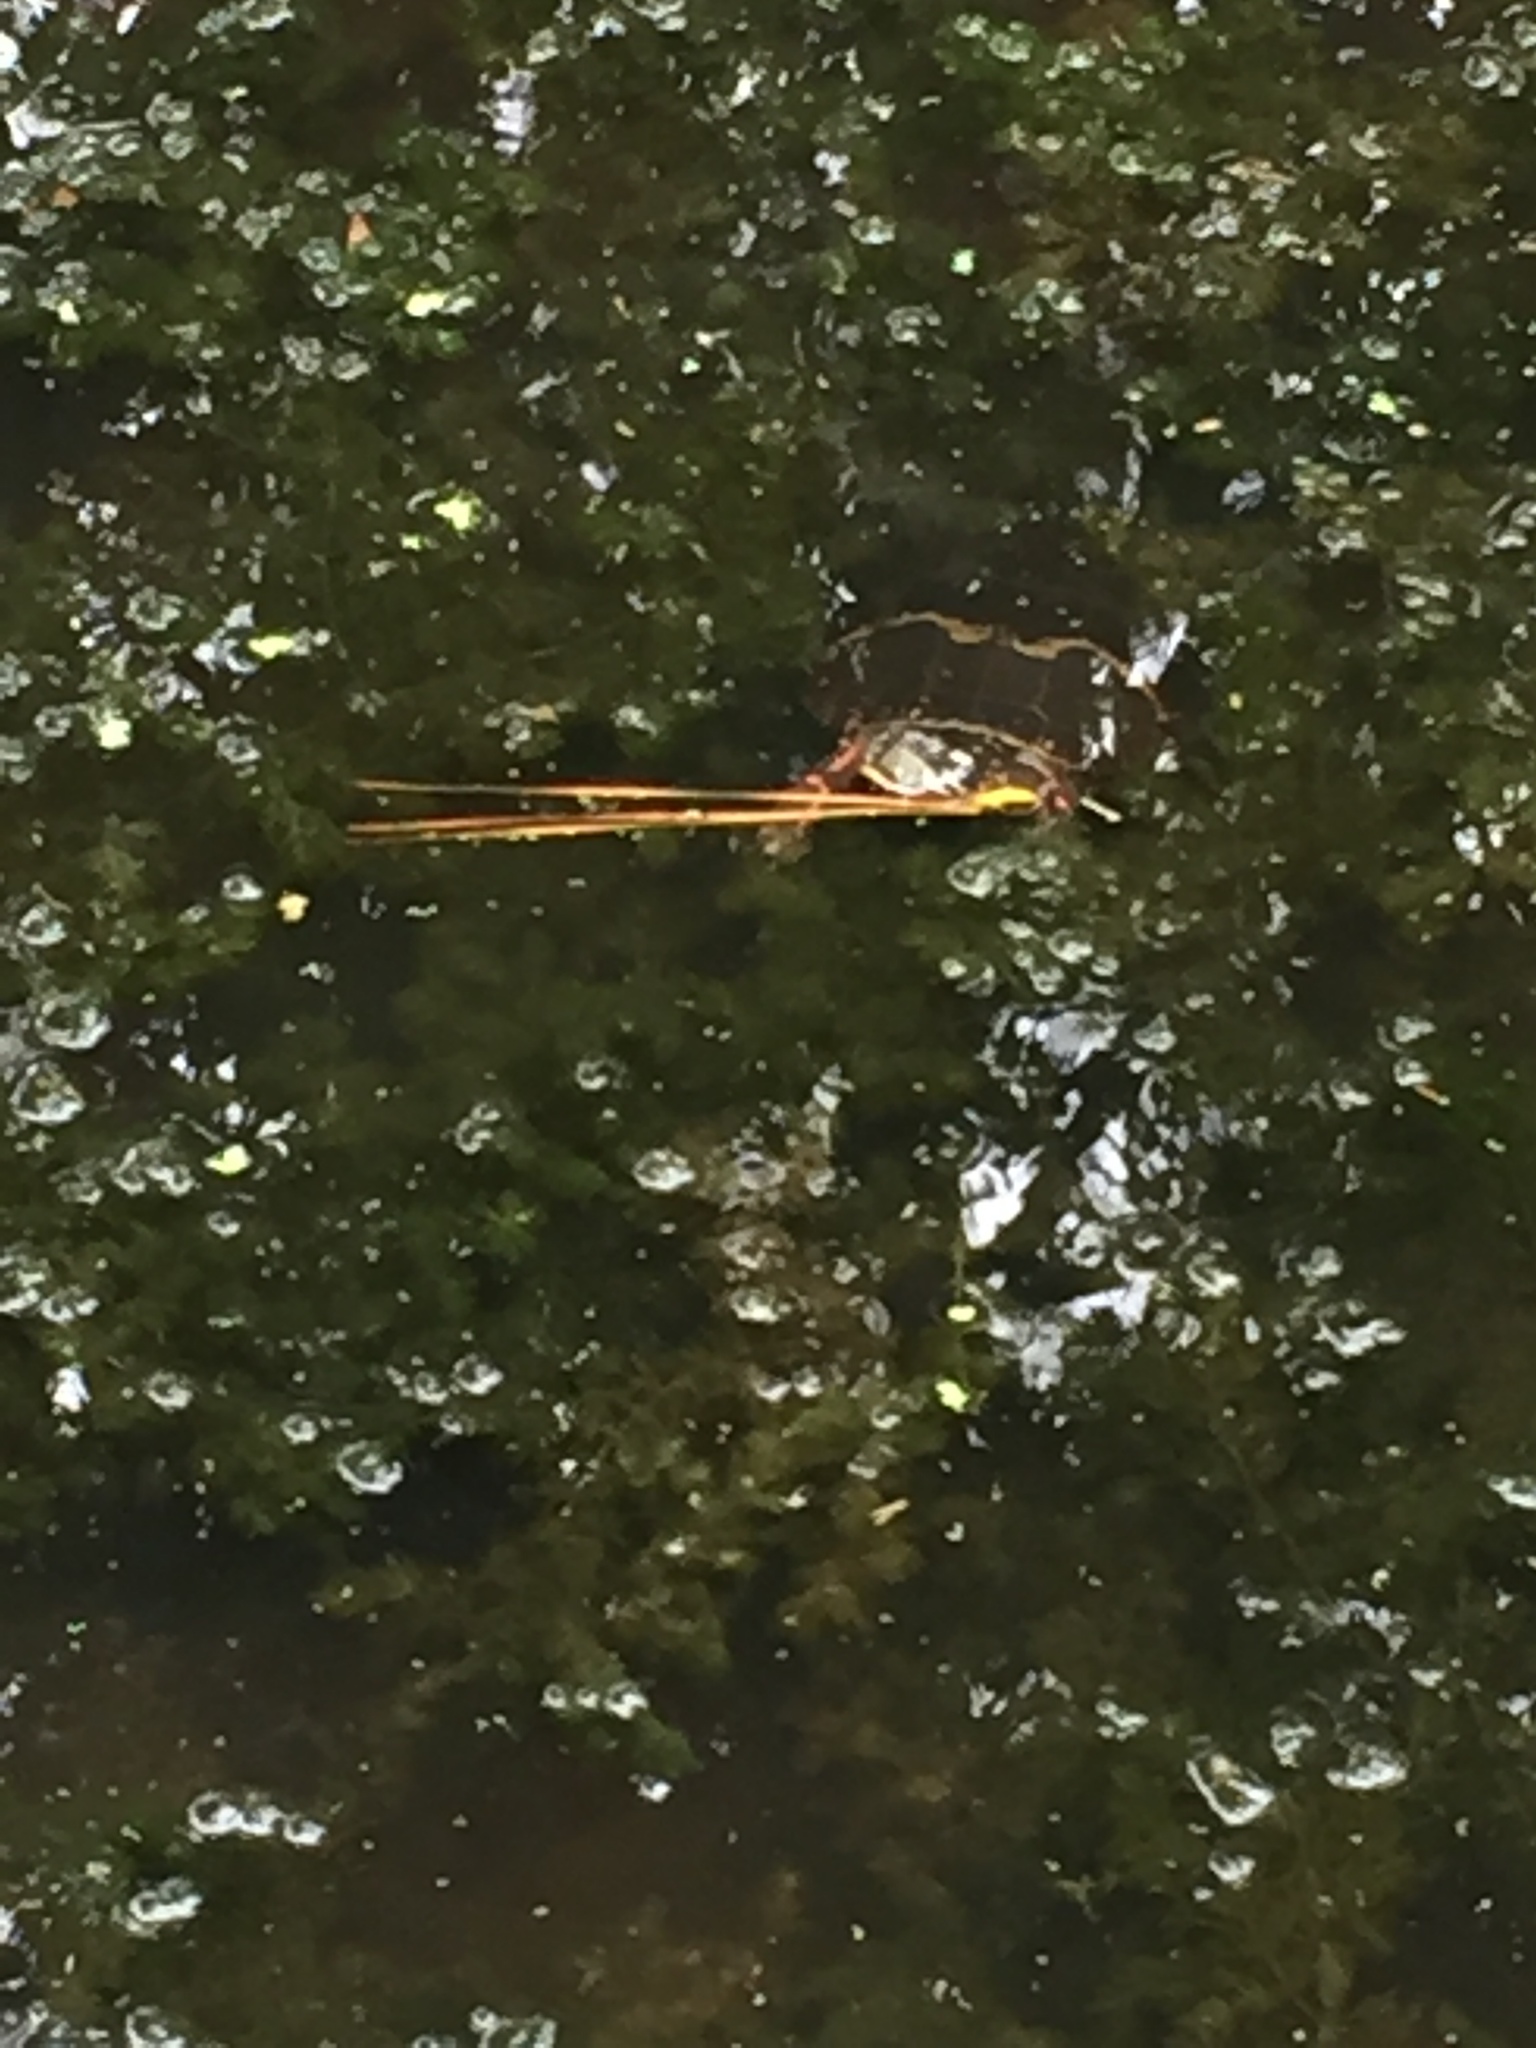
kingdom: Animalia
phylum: Chordata
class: Testudines
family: Emydidae
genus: Chrysemys
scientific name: Chrysemys picta
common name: Painted turtle
